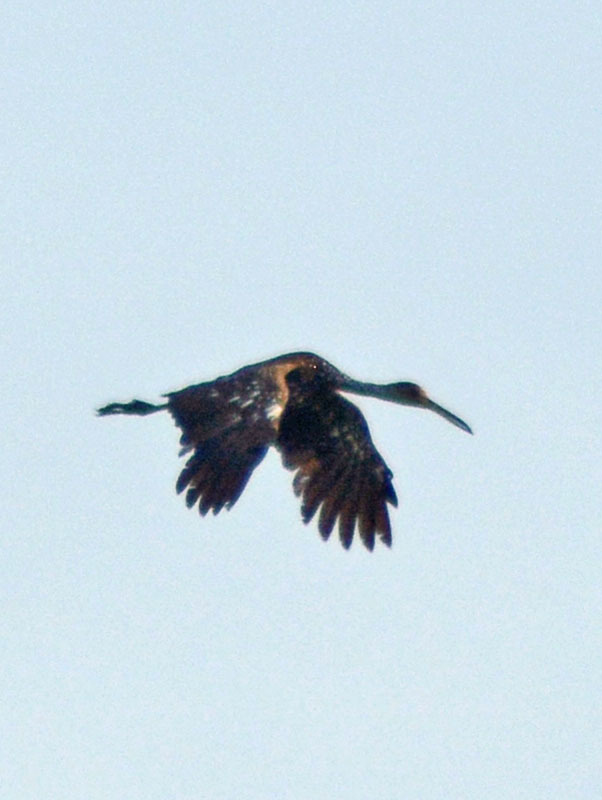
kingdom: Animalia
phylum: Chordata
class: Aves
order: Gruiformes
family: Aramidae
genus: Aramus
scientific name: Aramus guarauna
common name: Limpkin
